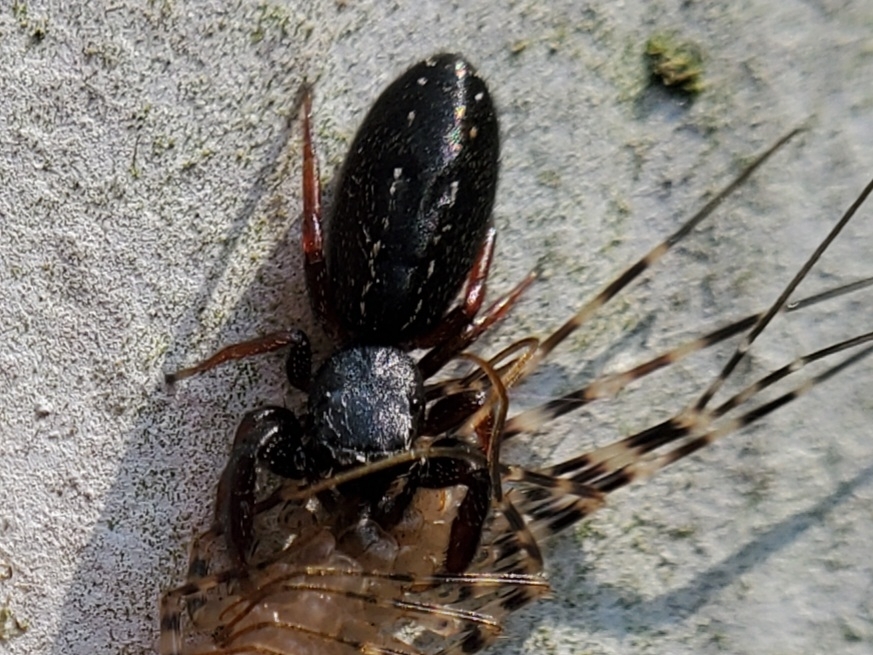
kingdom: Animalia
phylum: Arthropoda
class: Arachnida
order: Araneae
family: Salticidae
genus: Metacyrba
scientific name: Metacyrba taeniola
